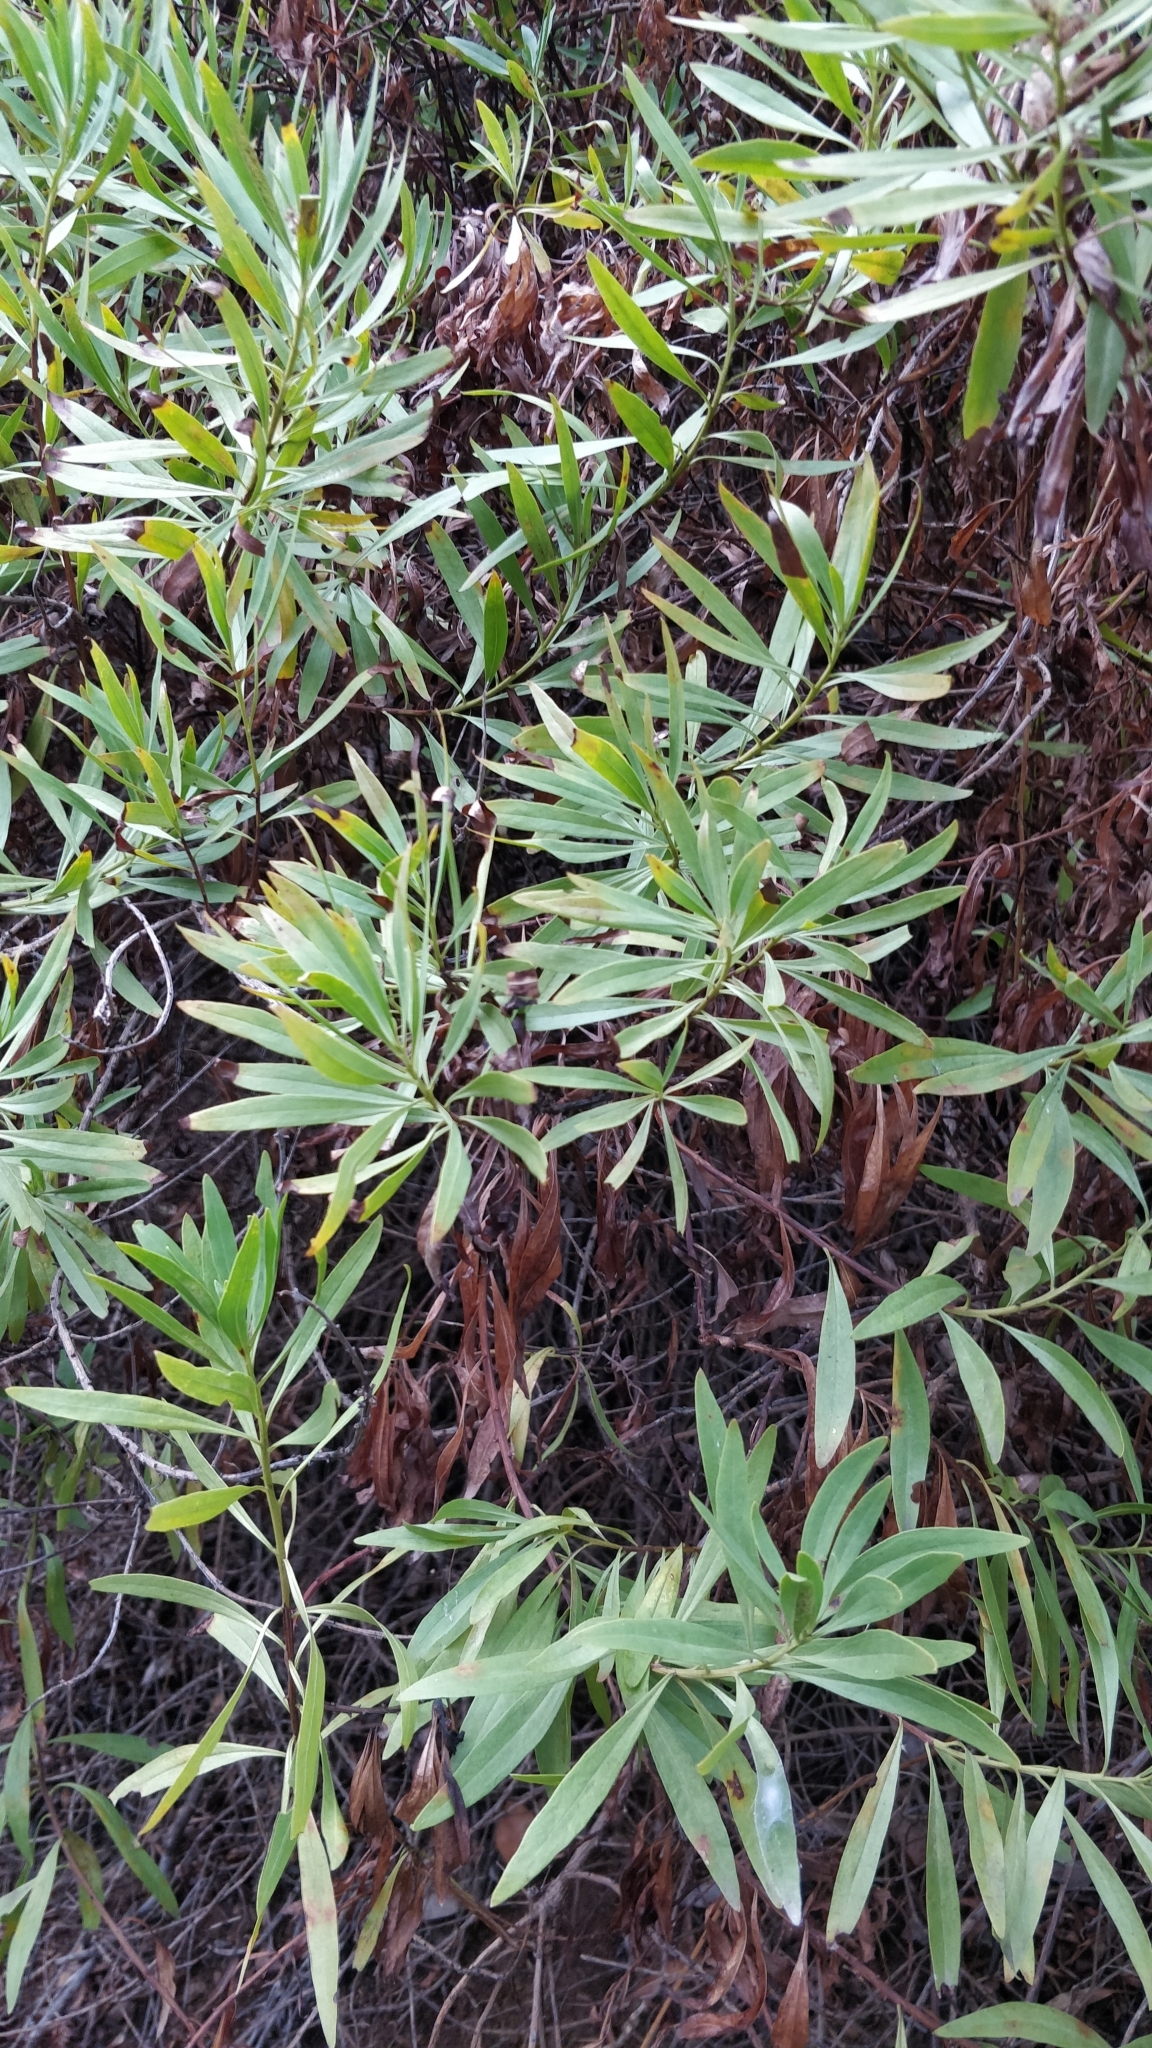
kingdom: Plantae
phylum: Tracheophyta
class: Magnoliopsida
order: Lamiales
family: Plantaginaceae
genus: Globularia
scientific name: Globularia salicina
